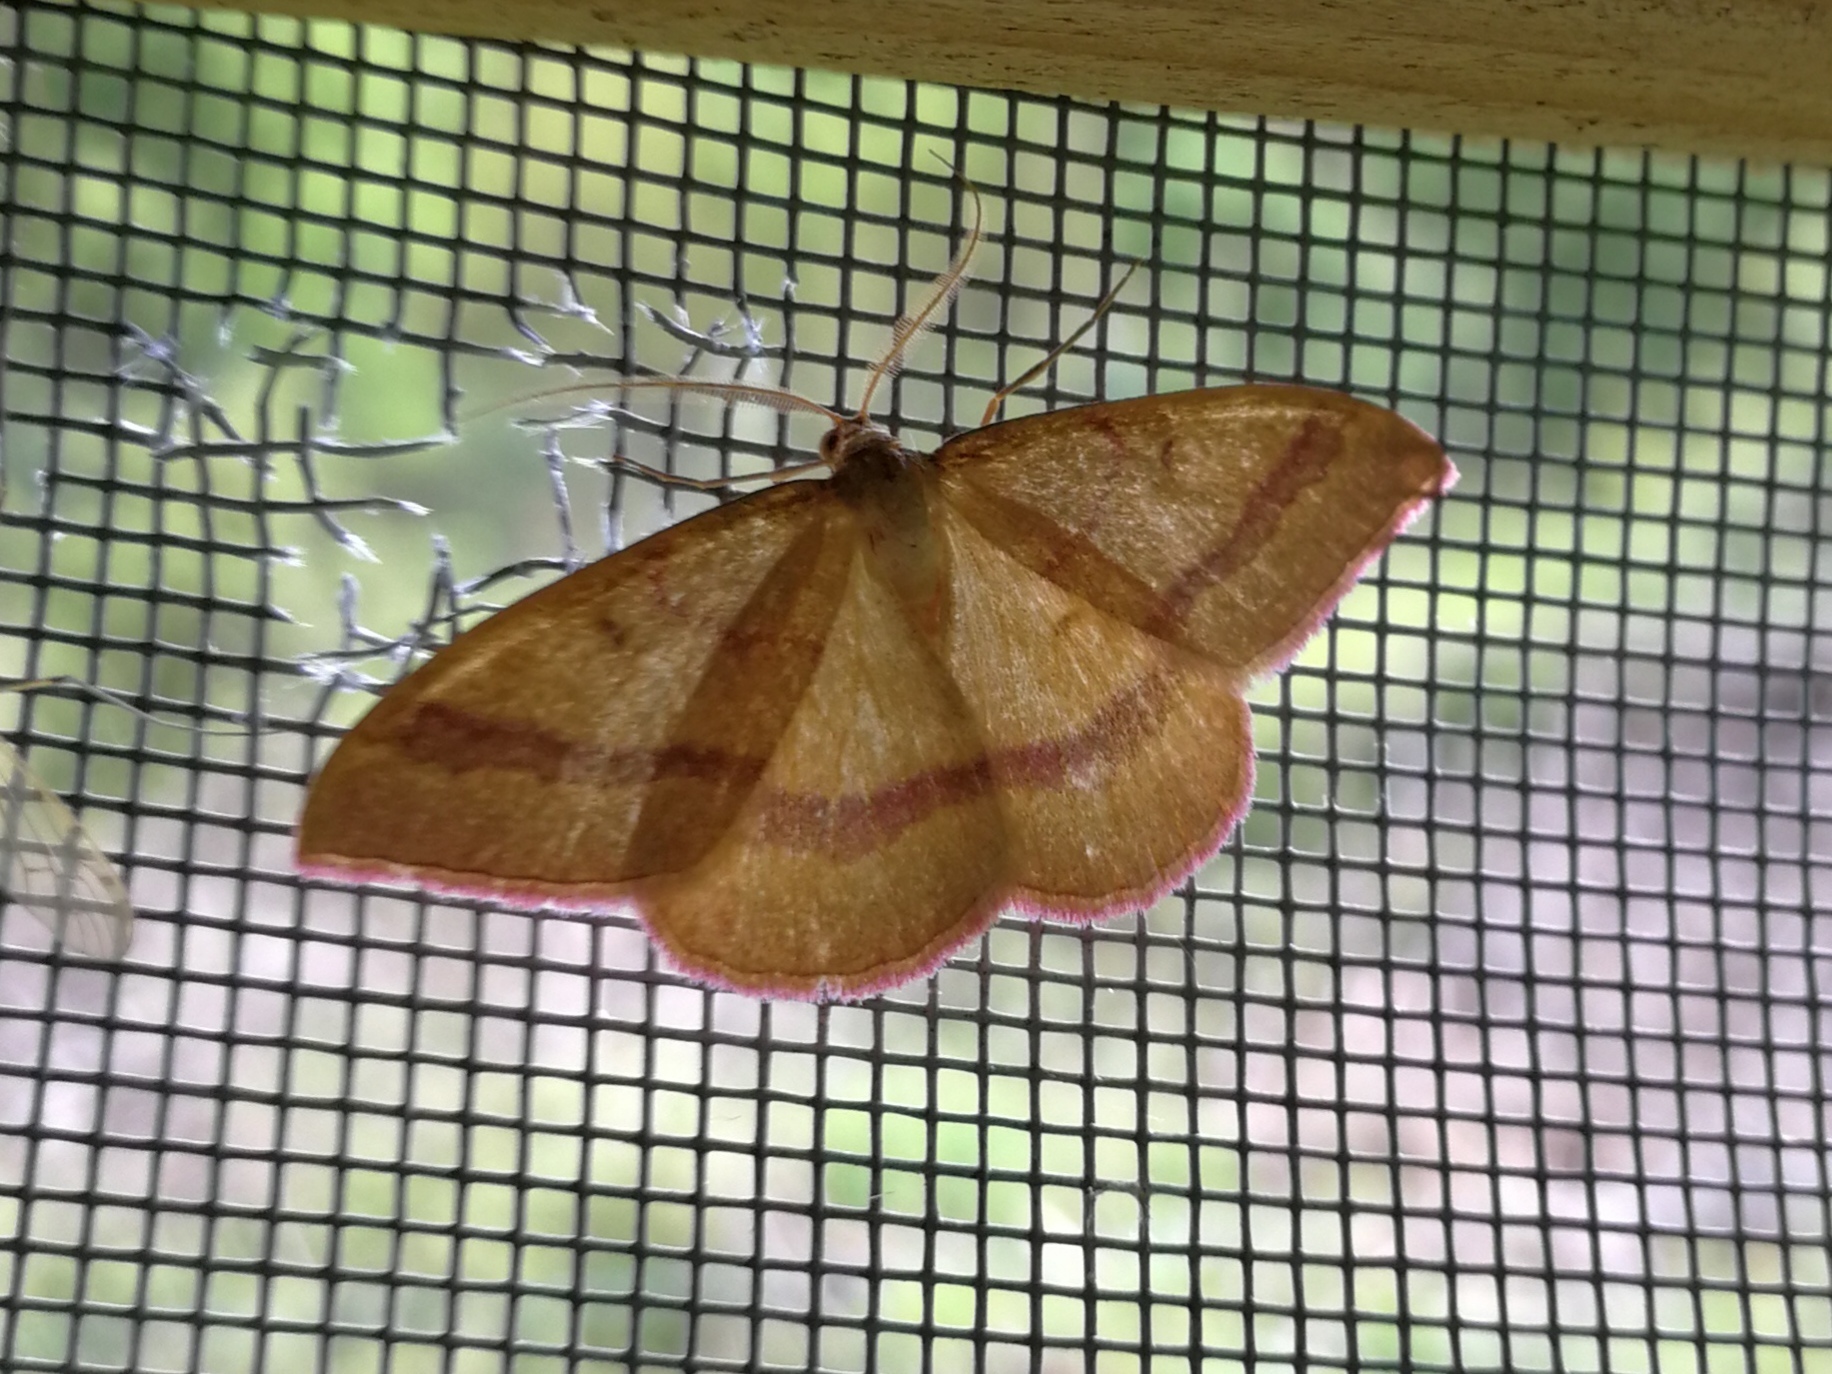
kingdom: Animalia
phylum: Arthropoda
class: Insecta
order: Lepidoptera
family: Geometridae
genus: Rhodostrophia
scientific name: Rhodostrophia calabra
